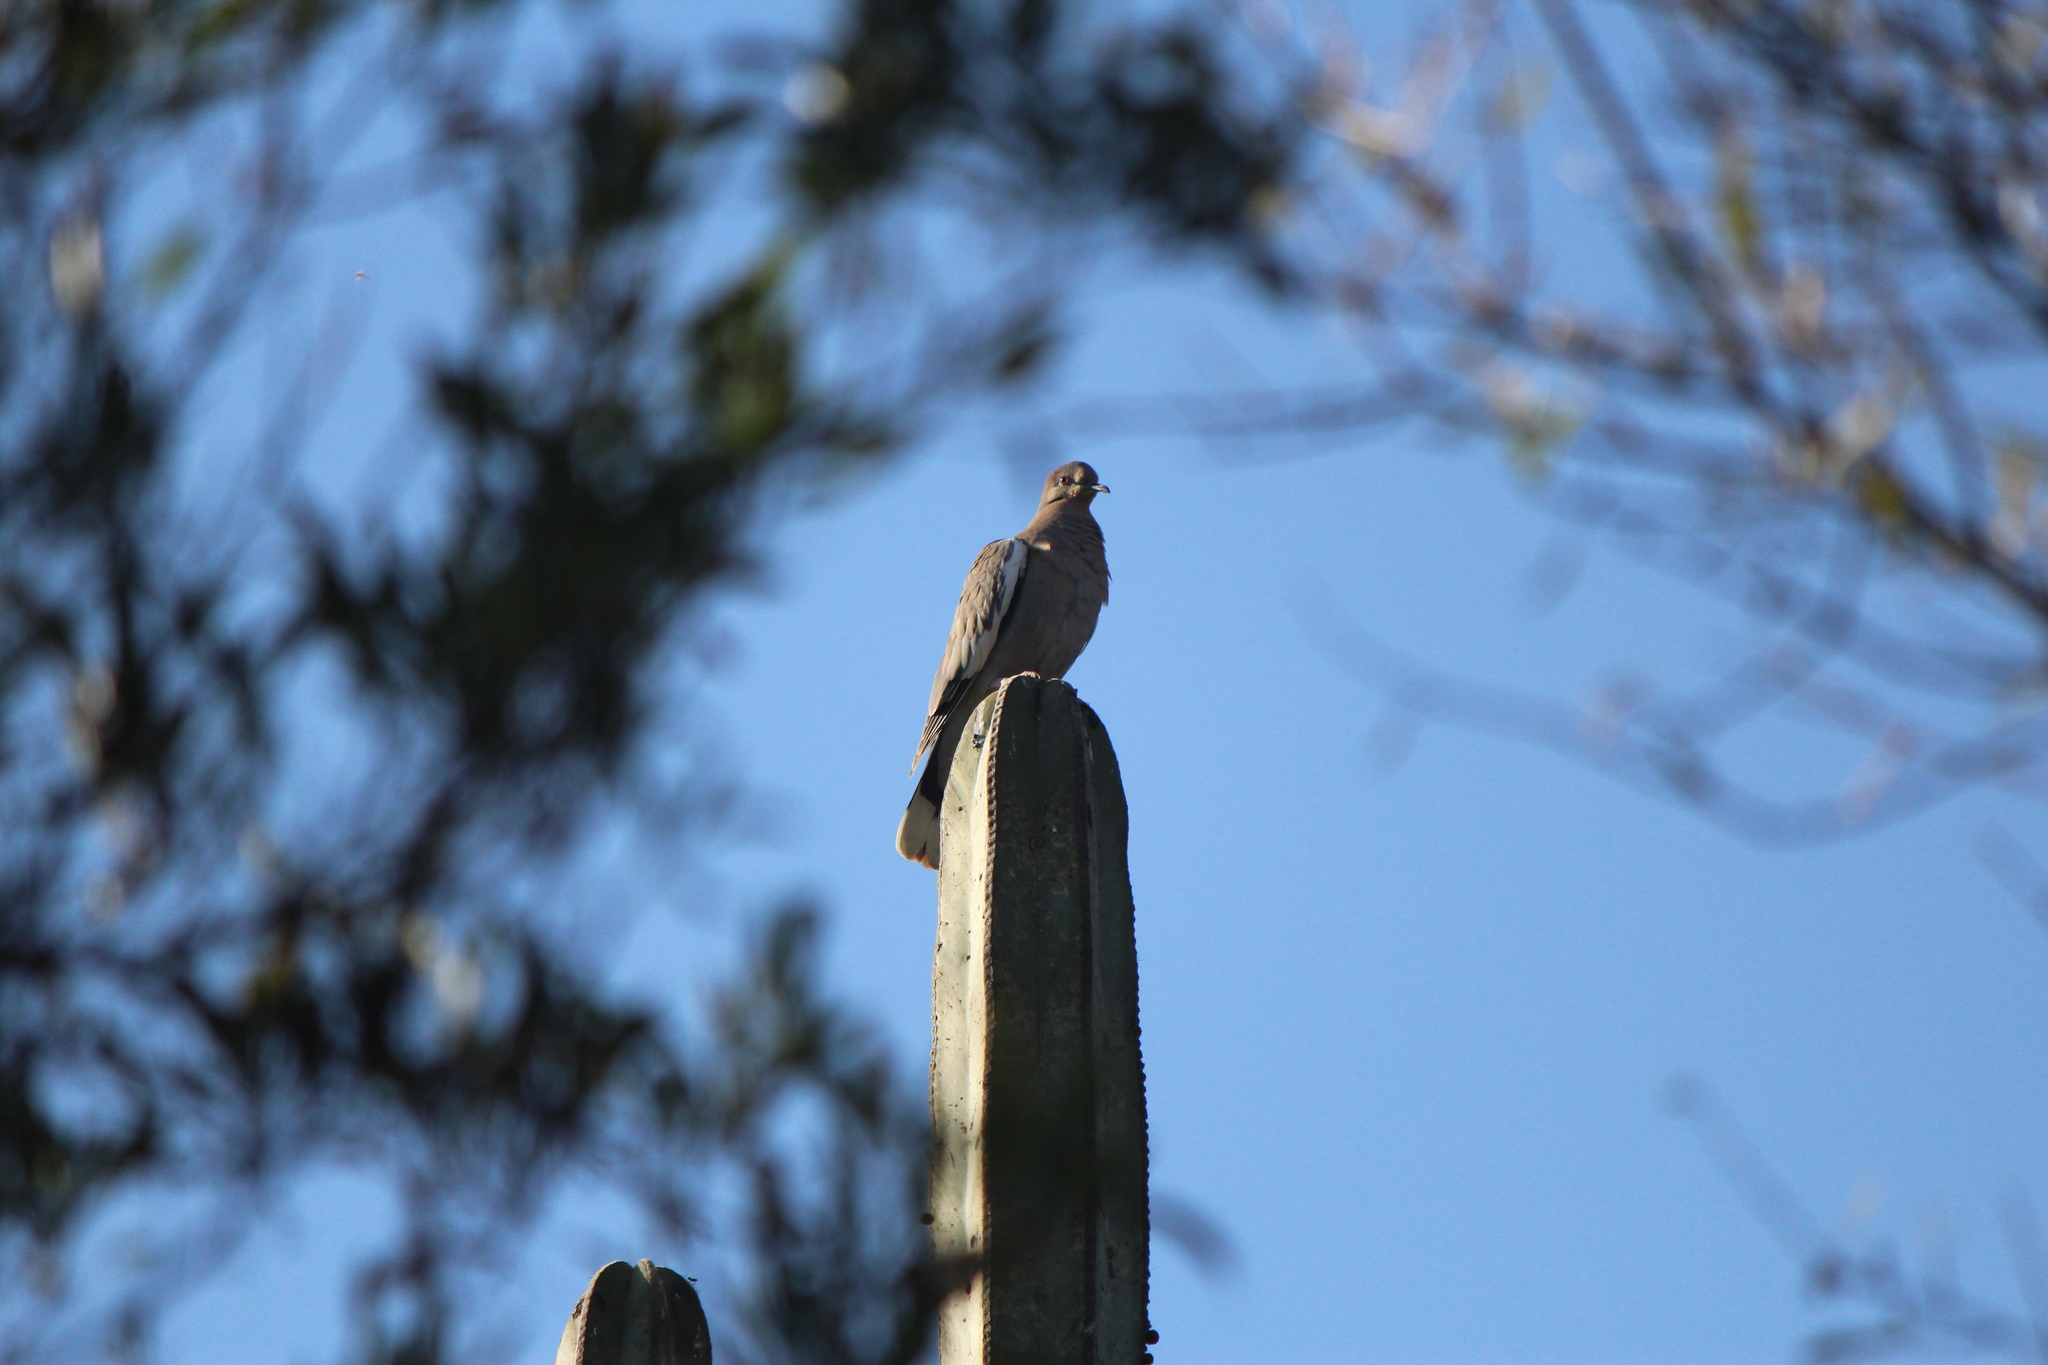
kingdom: Animalia
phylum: Chordata
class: Aves
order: Columbiformes
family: Columbidae
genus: Zenaida
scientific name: Zenaida asiatica
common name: White-winged dove
